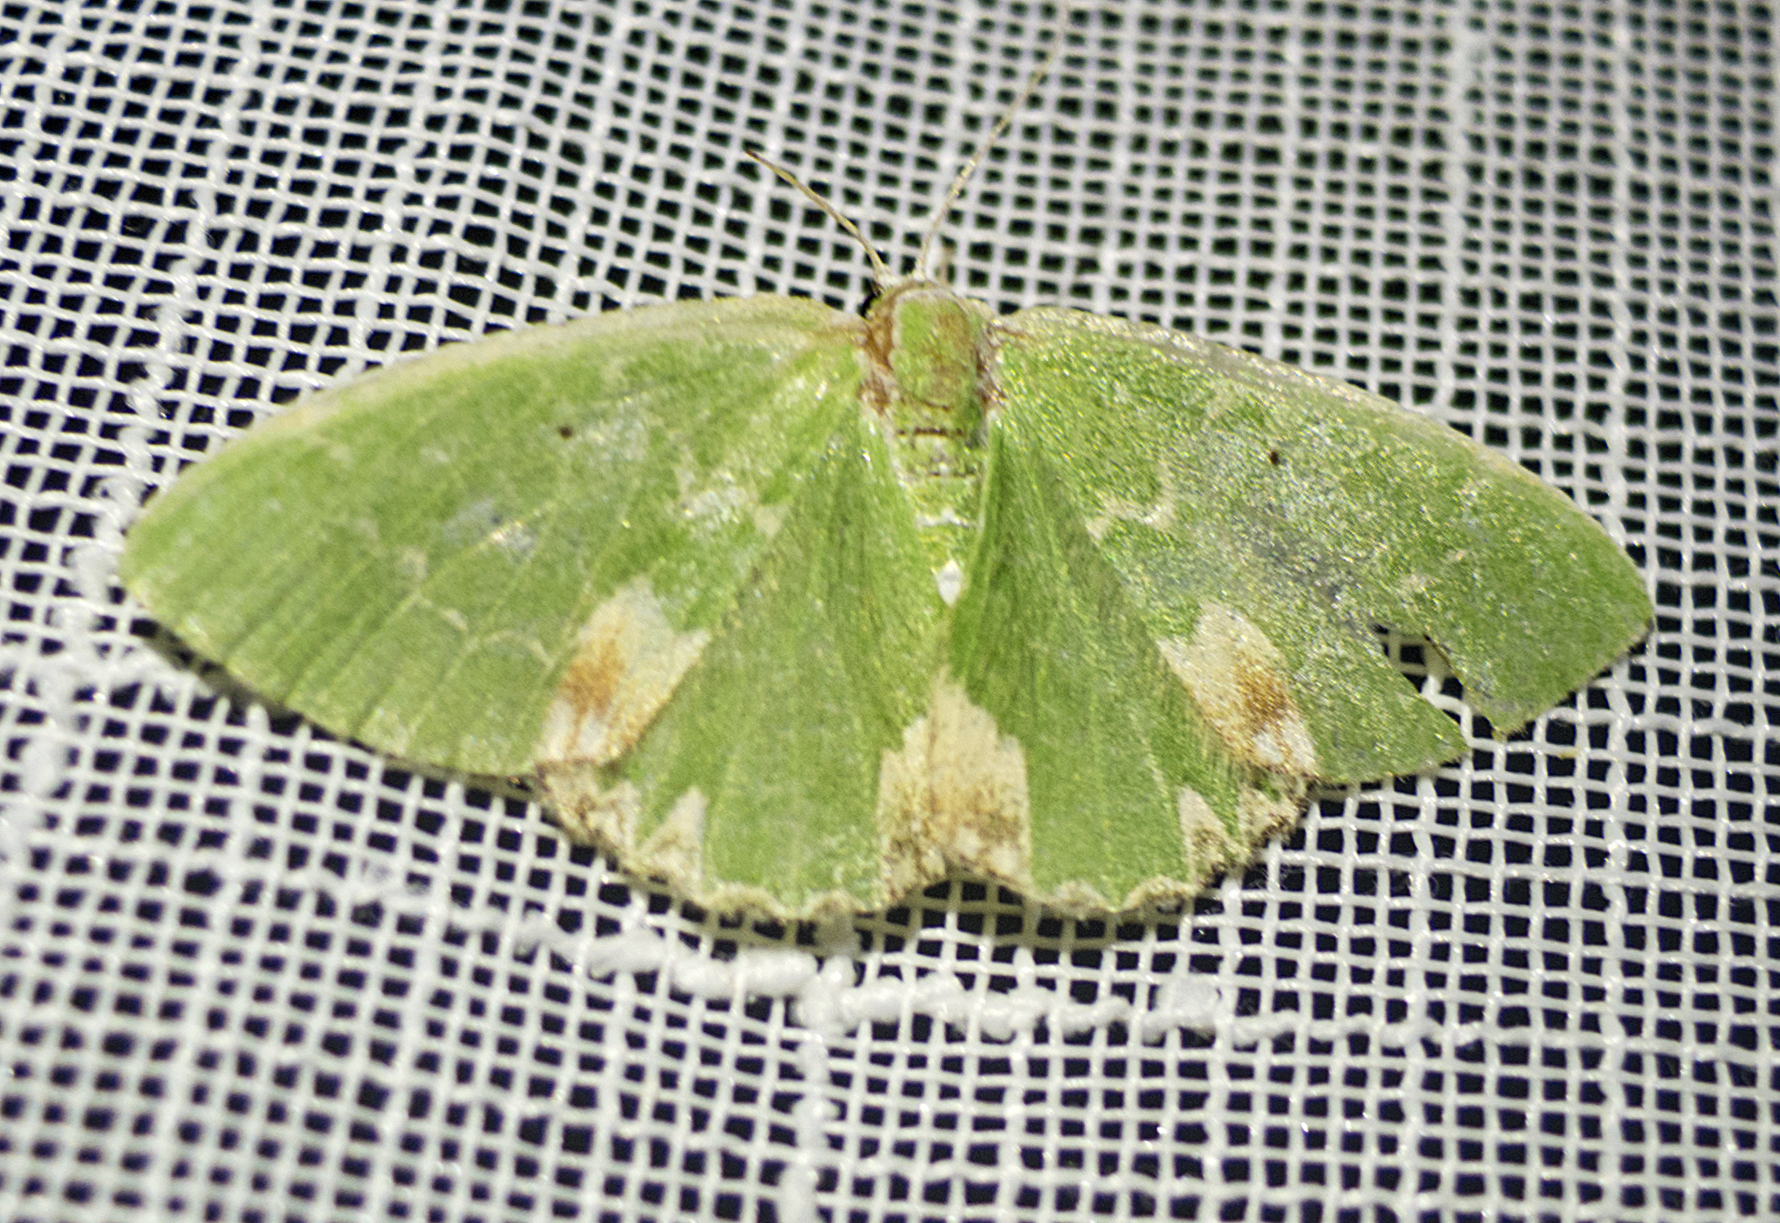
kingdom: Animalia
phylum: Arthropoda
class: Insecta
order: Lepidoptera
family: Geometridae
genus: Comibaena
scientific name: Comibaena bajularia
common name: Blotched emerald
